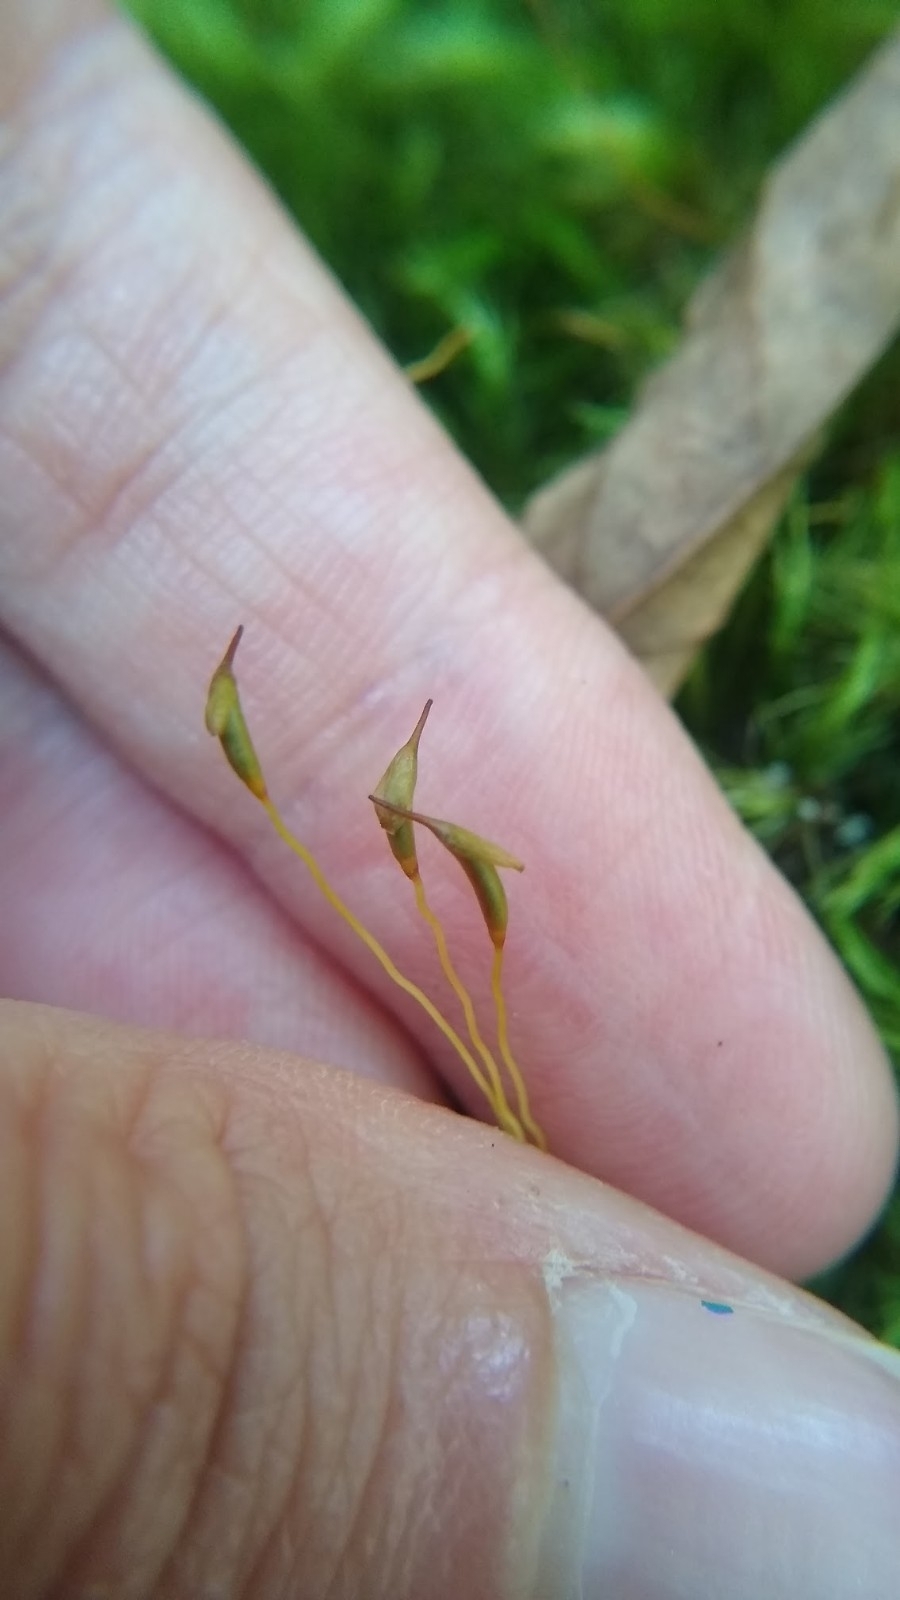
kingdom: Plantae
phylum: Bryophyta
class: Bryopsida
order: Dicranales
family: Dicranaceae
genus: Dicranum
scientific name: Dicranum scoparium
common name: Broom fork-moss
